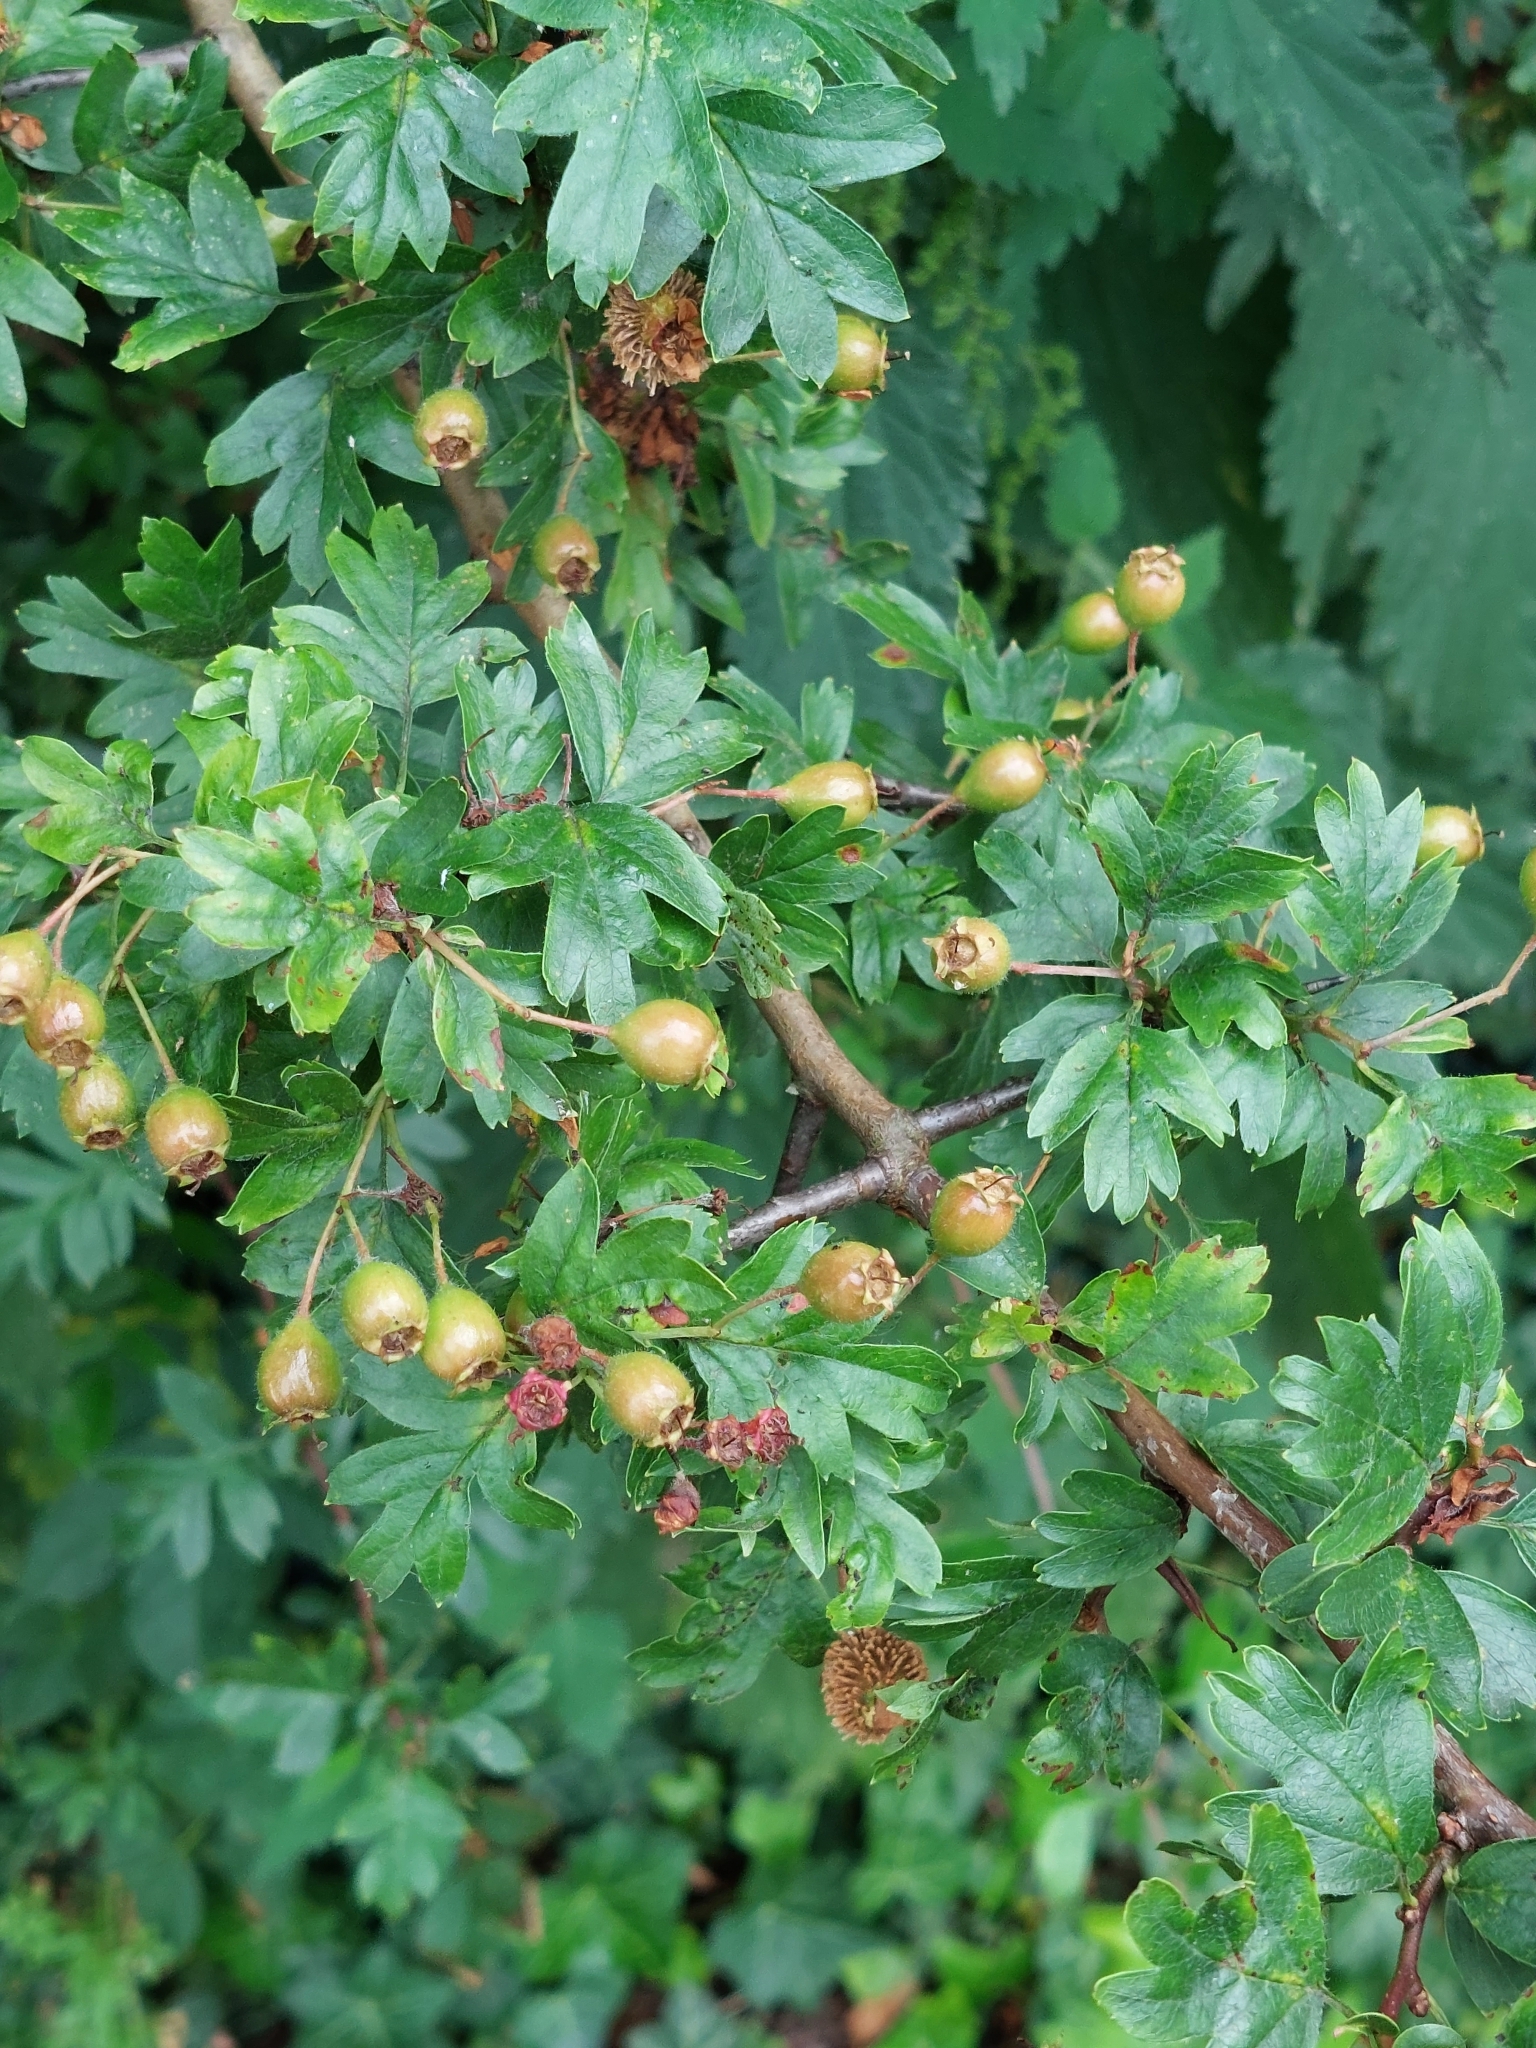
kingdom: Plantae
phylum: Tracheophyta
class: Magnoliopsida
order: Rosales
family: Rosaceae
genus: Crataegus
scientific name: Crataegus monogyna
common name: Hawthorn
